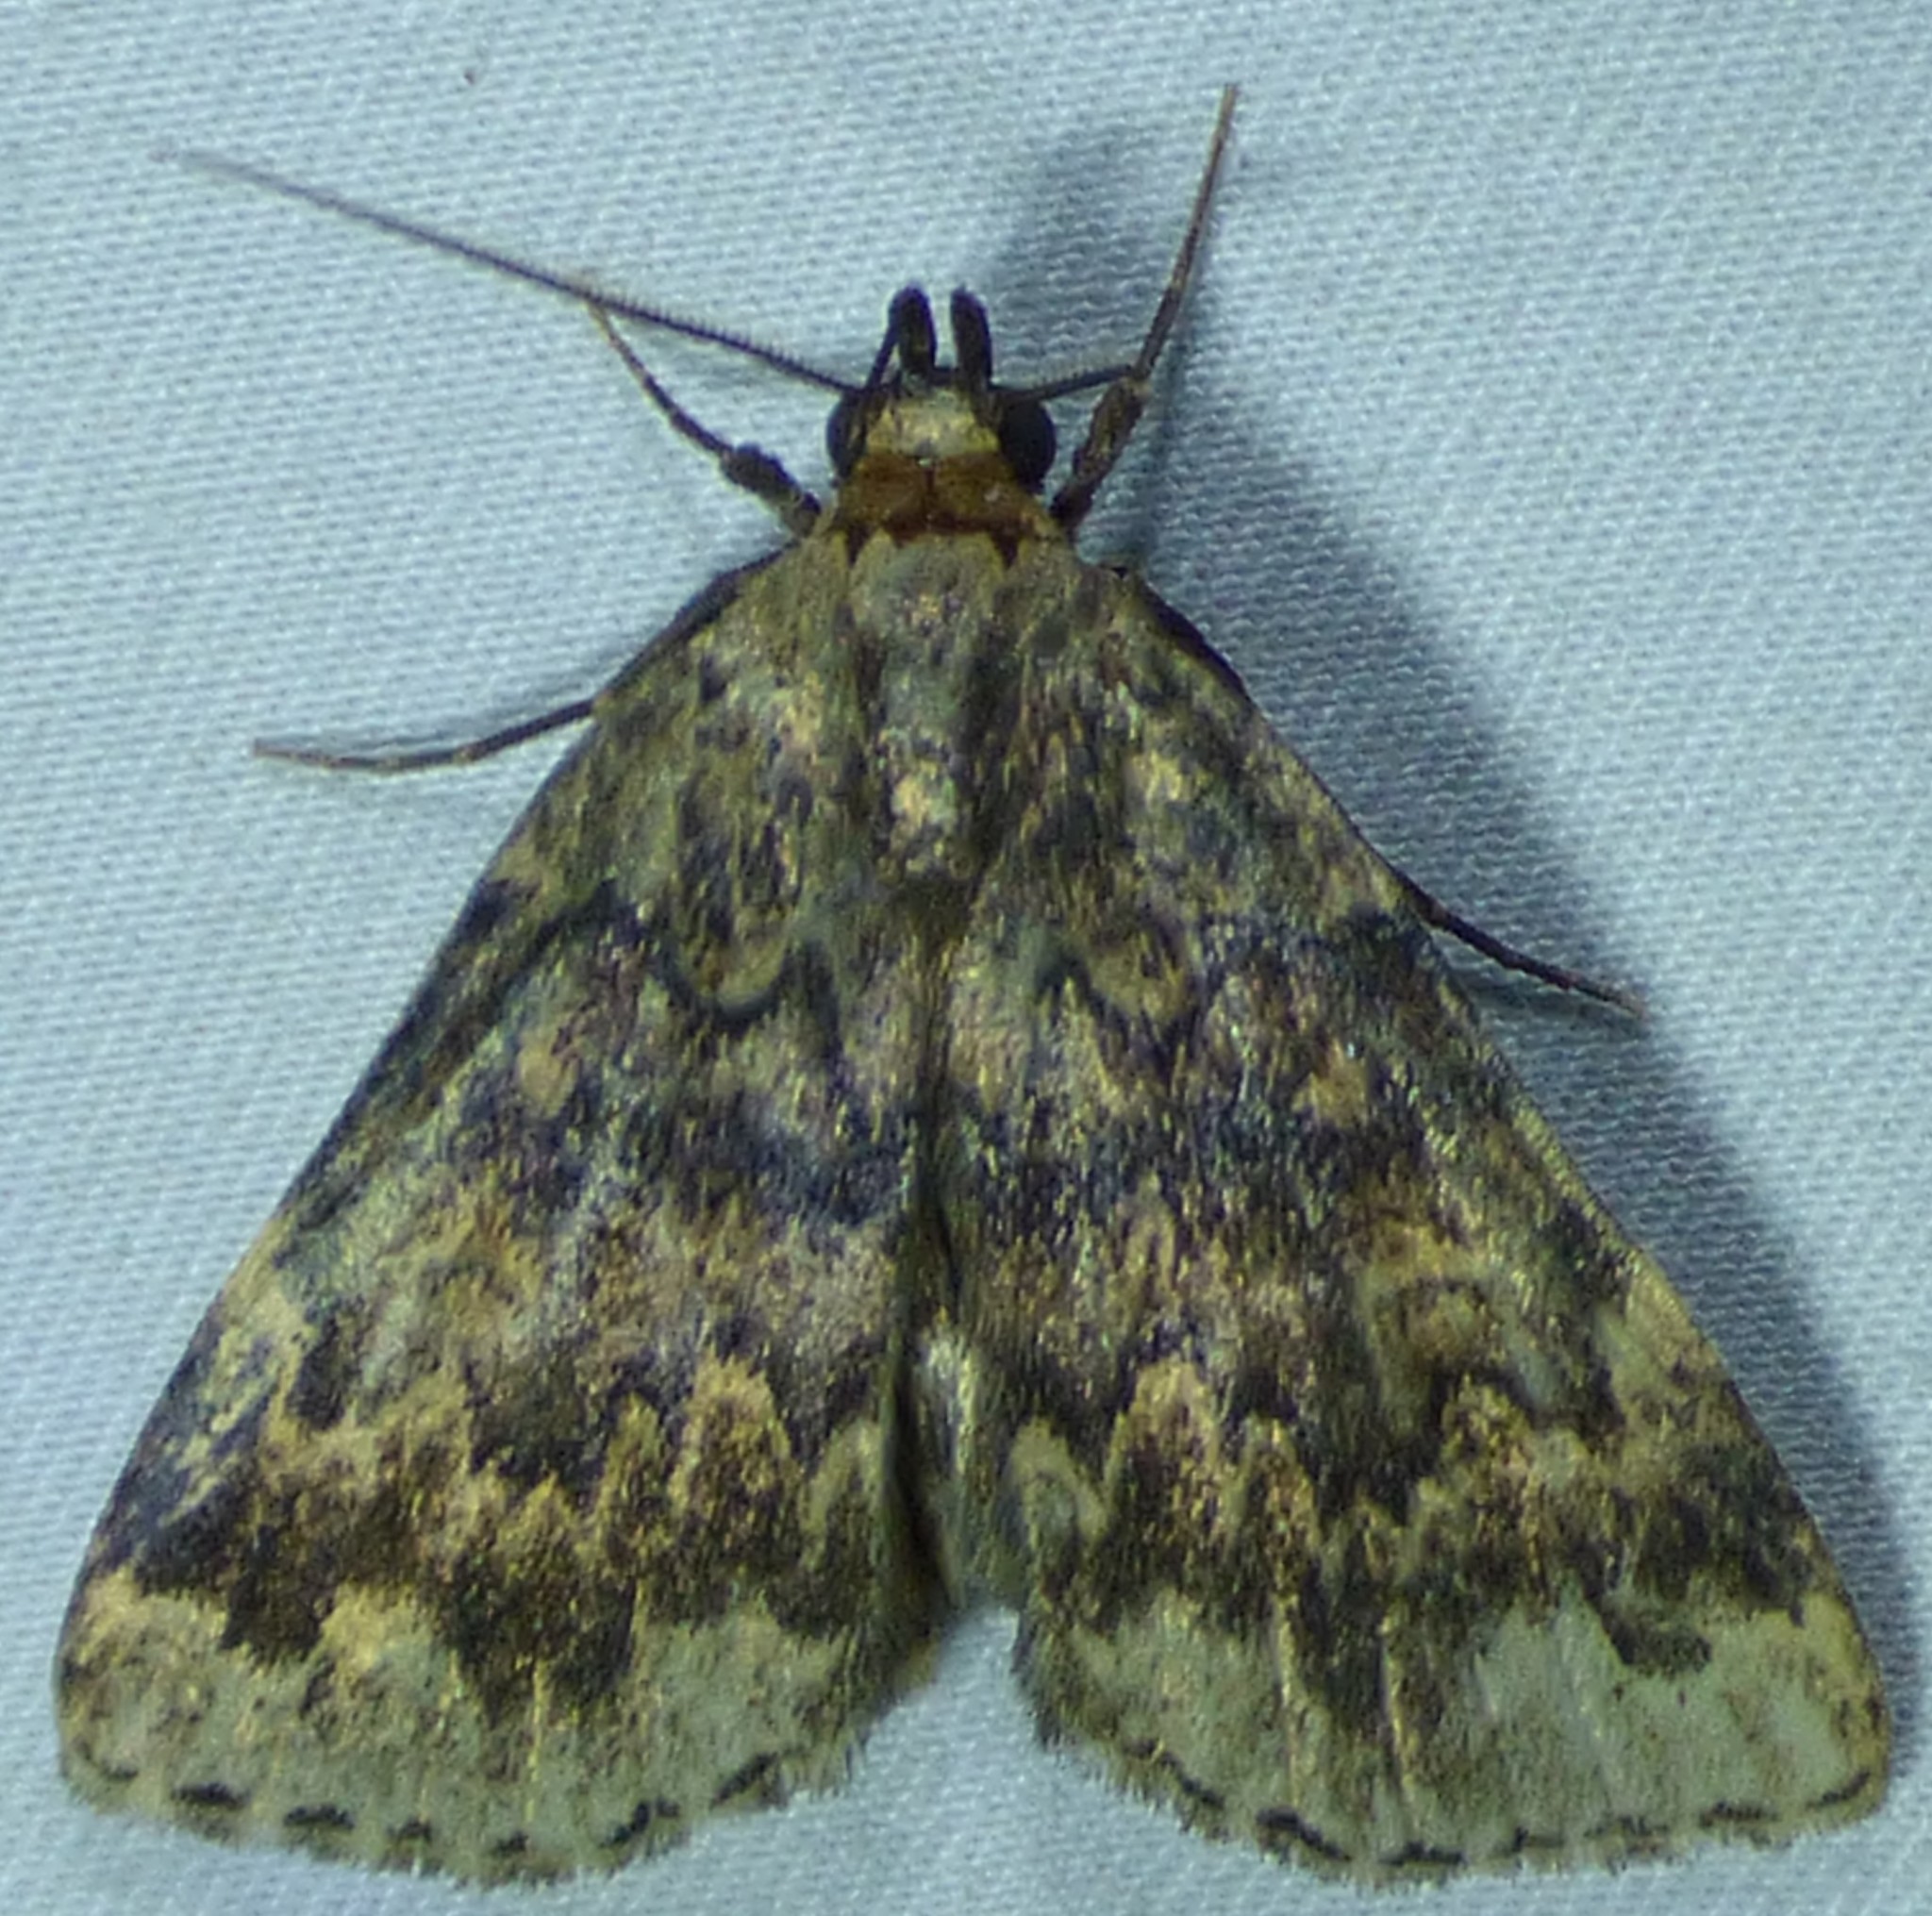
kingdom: Animalia
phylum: Arthropoda
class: Insecta
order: Lepidoptera
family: Erebidae
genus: Idia
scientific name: Idia denticulalis
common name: Toothed idia moth
